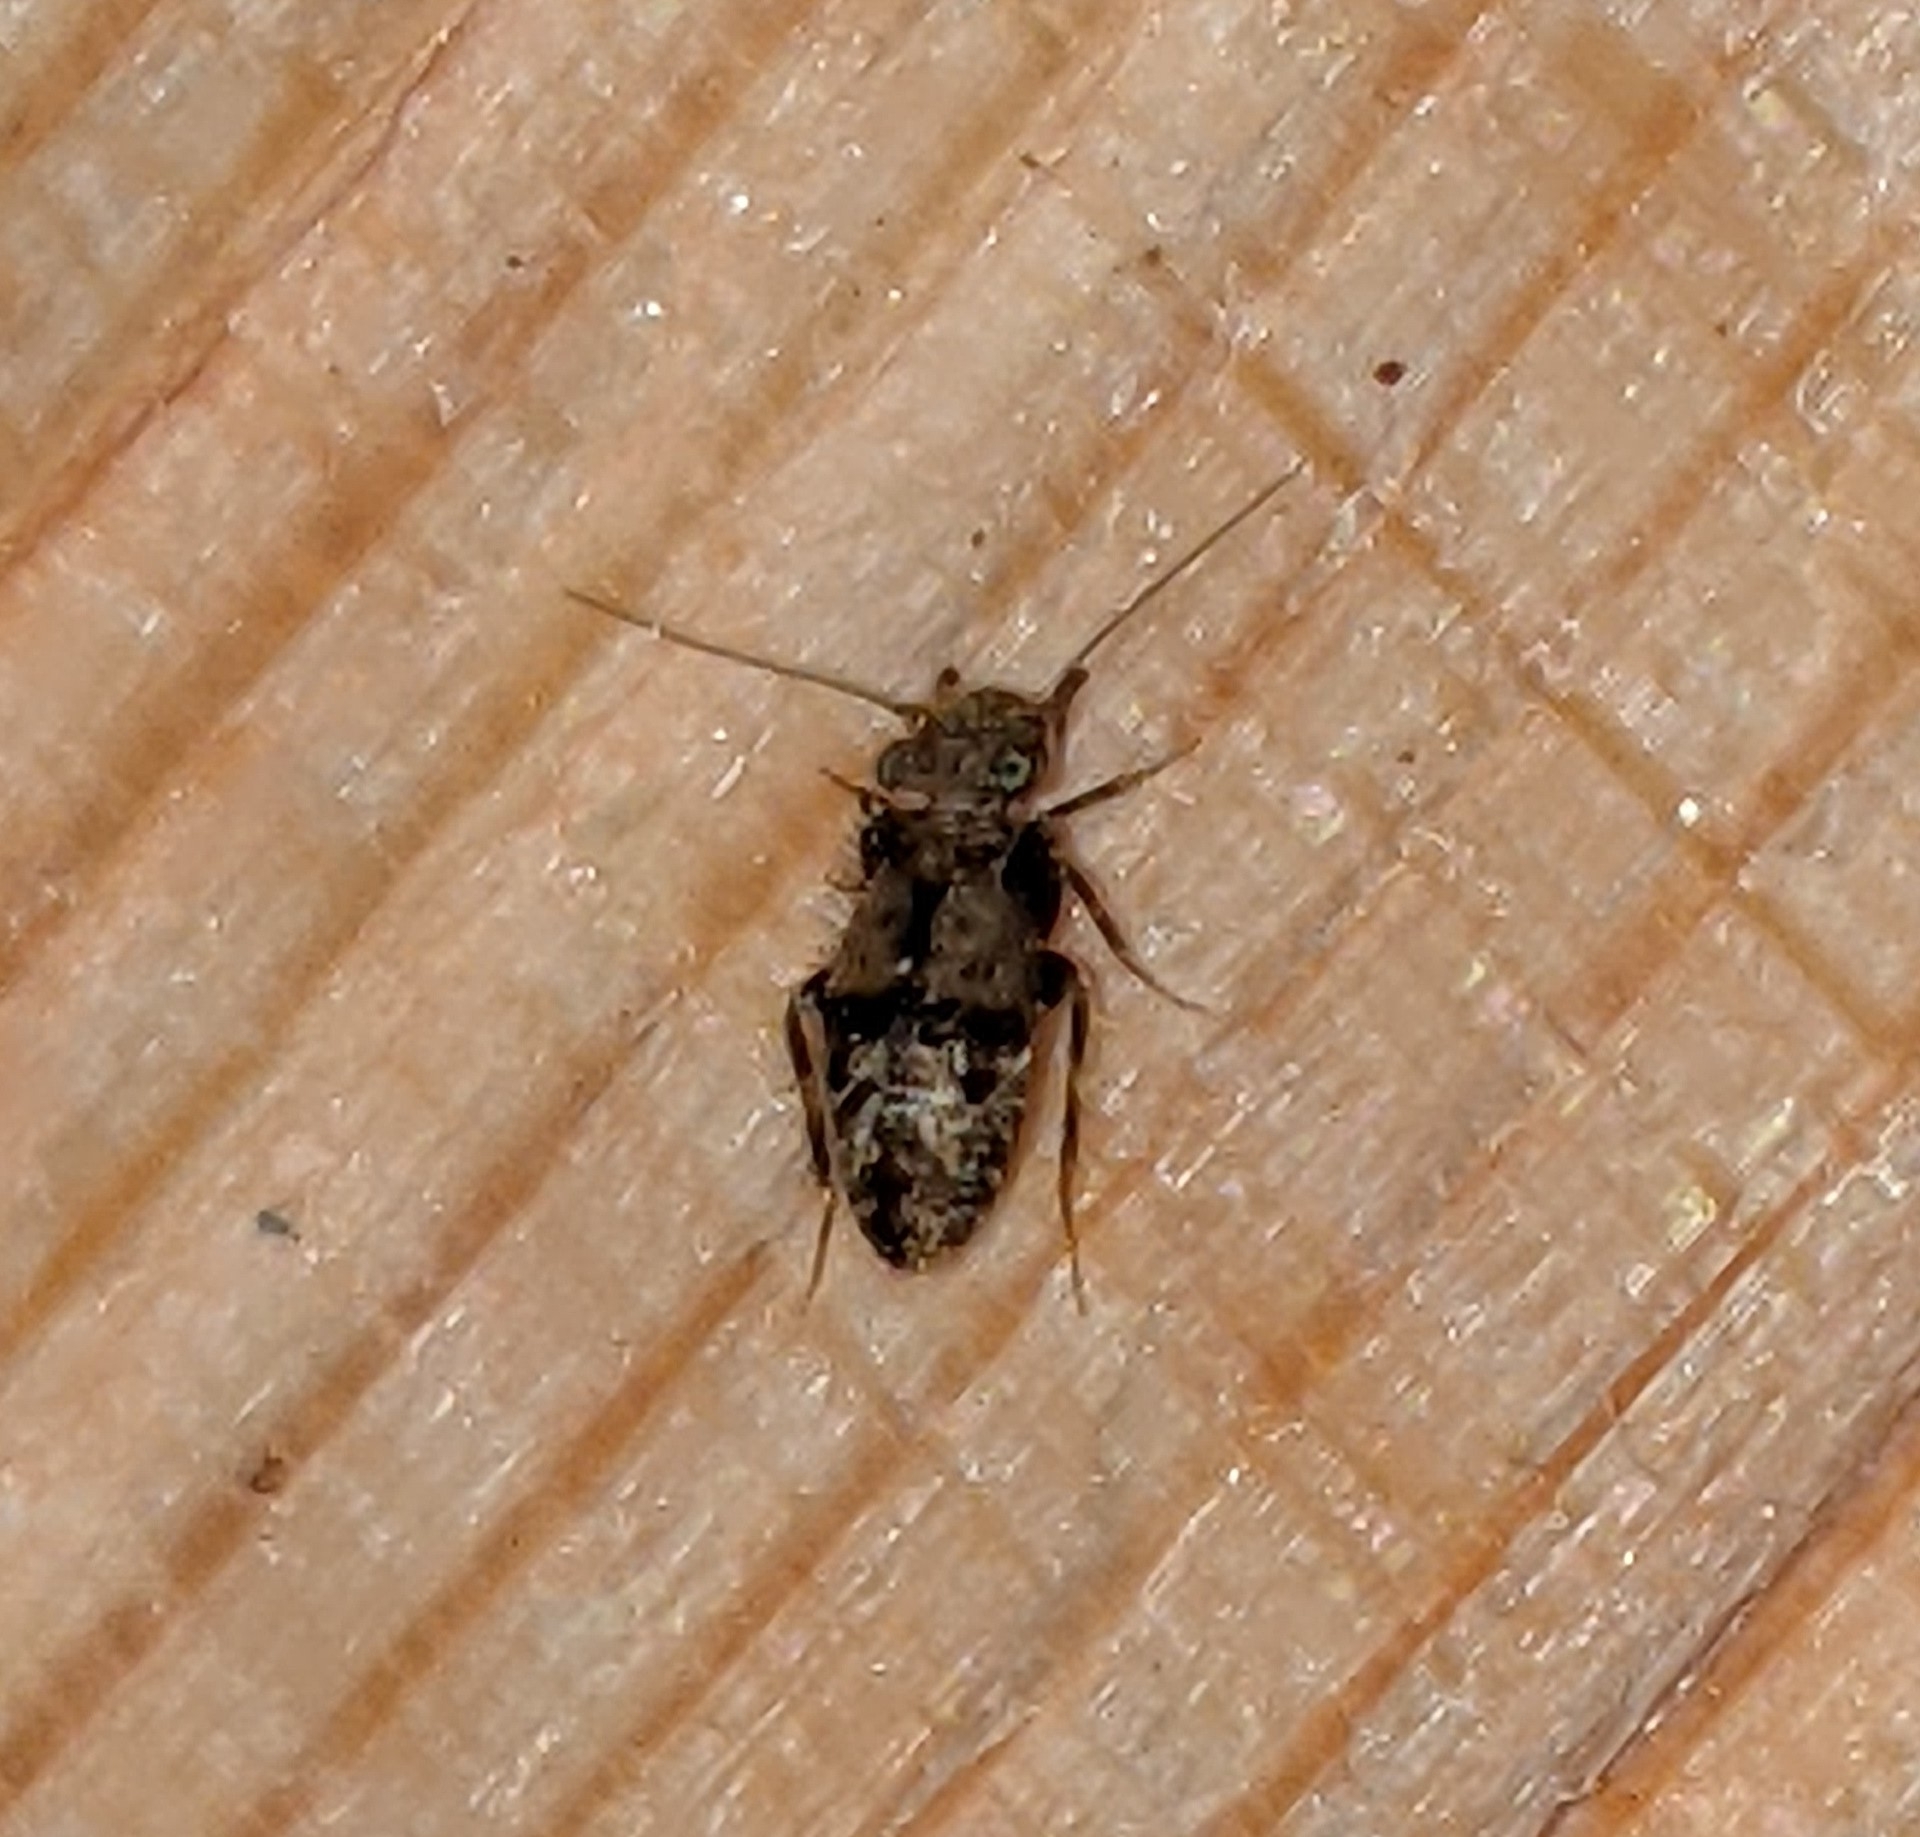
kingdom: Animalia
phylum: Arthropoda
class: Insecta
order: Psocodea
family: Lepidopsocidae
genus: Pteroxanium
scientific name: Pteroxanium kelloggi
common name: Bark lice
